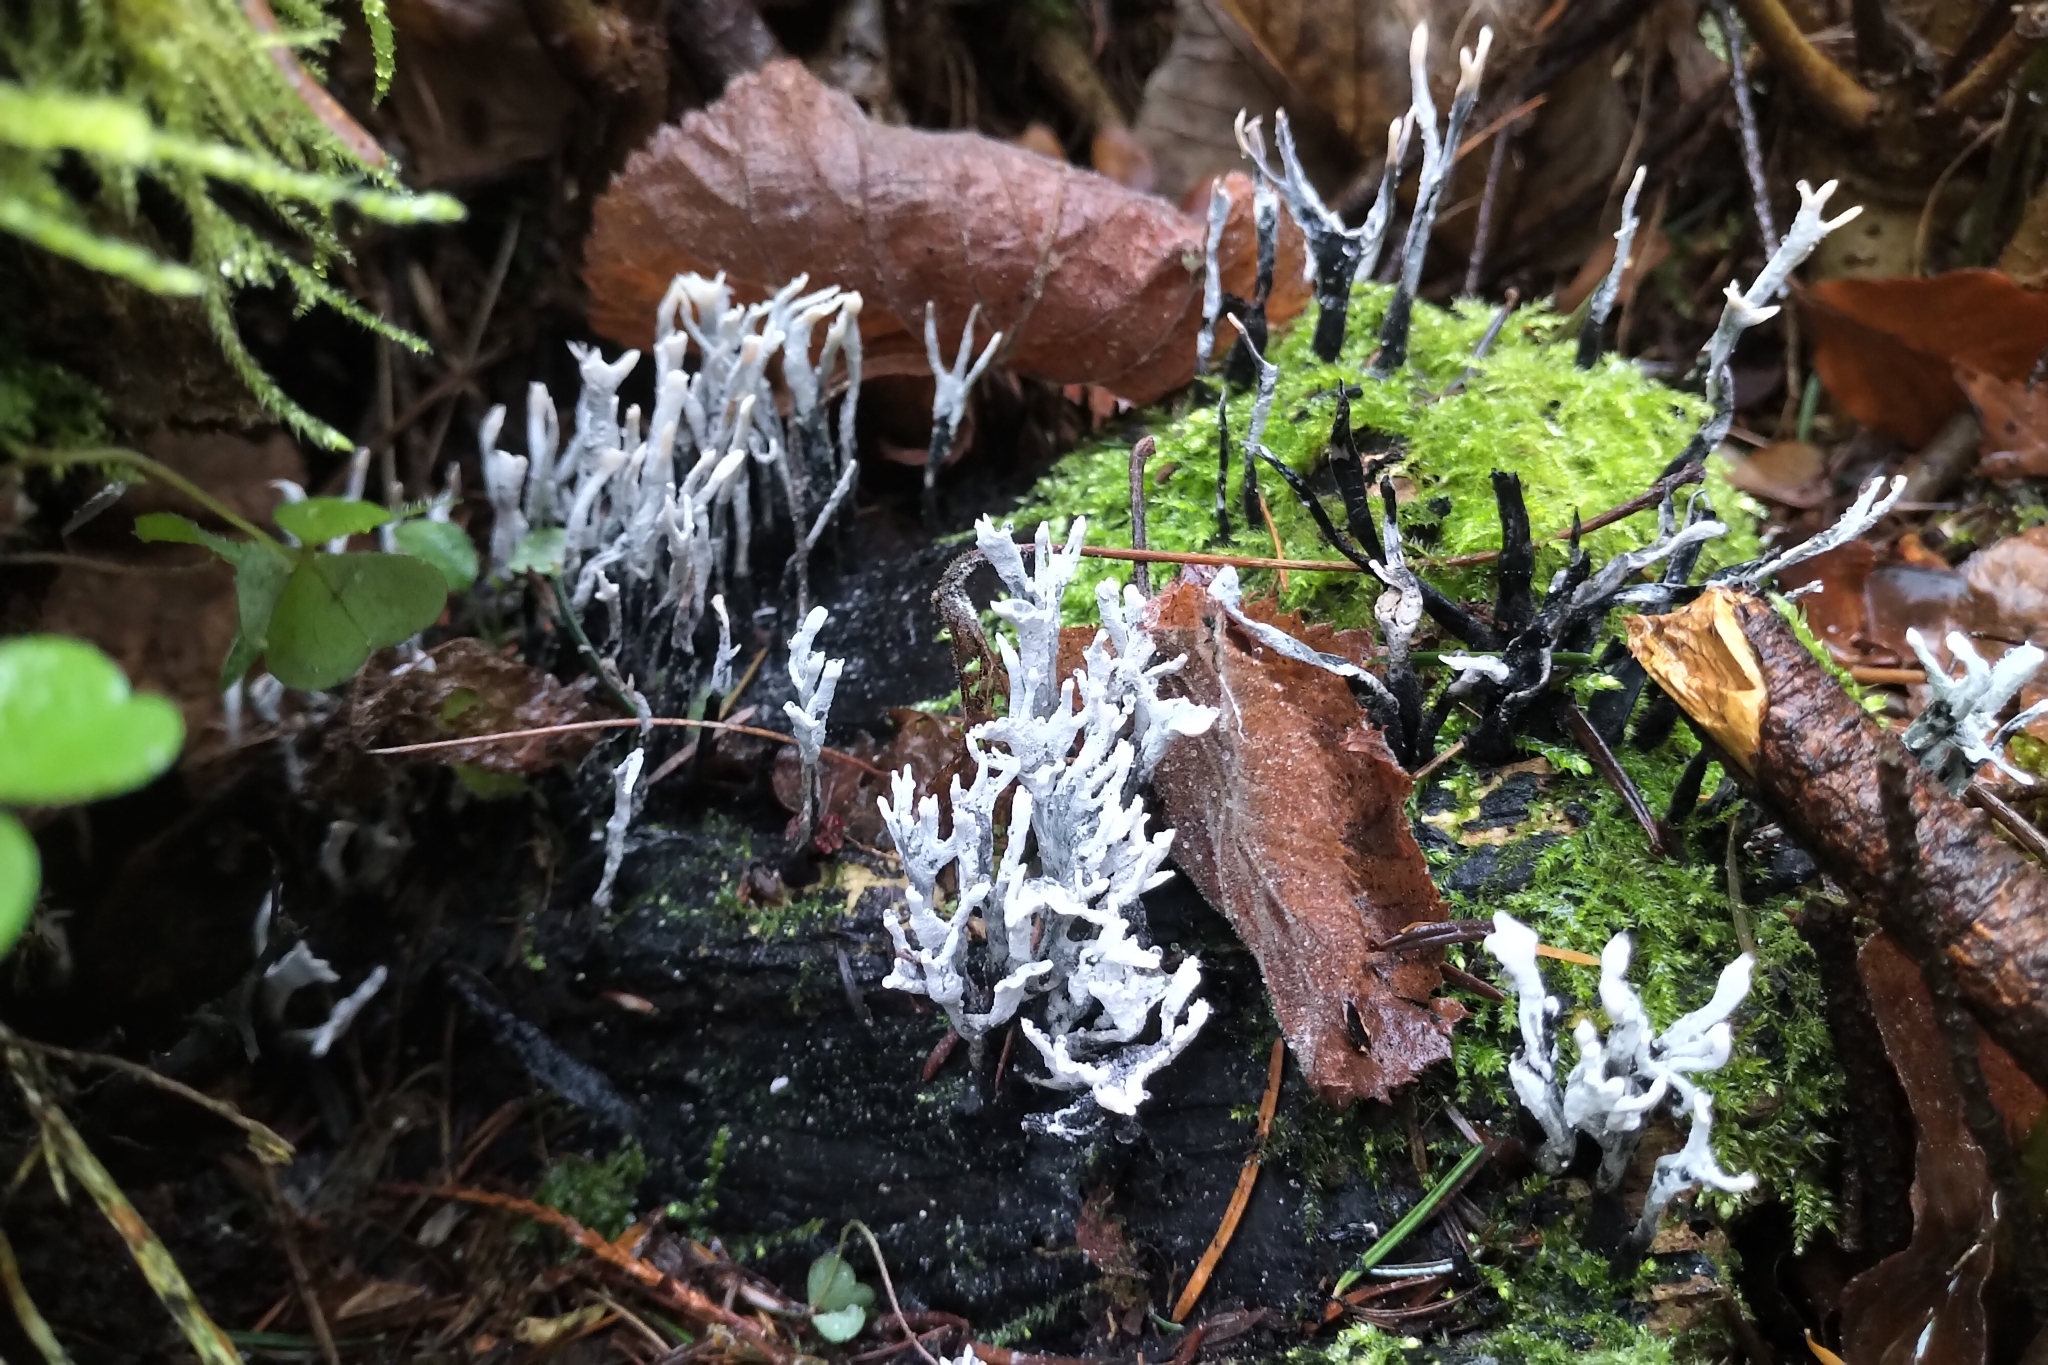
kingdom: Fungi
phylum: Ascomycota
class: Sordariomycetes
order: Xylariales
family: Xylariaceae
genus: Xylaria
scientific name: Xylaria hypoxylon
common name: Candle-snuff fungus
